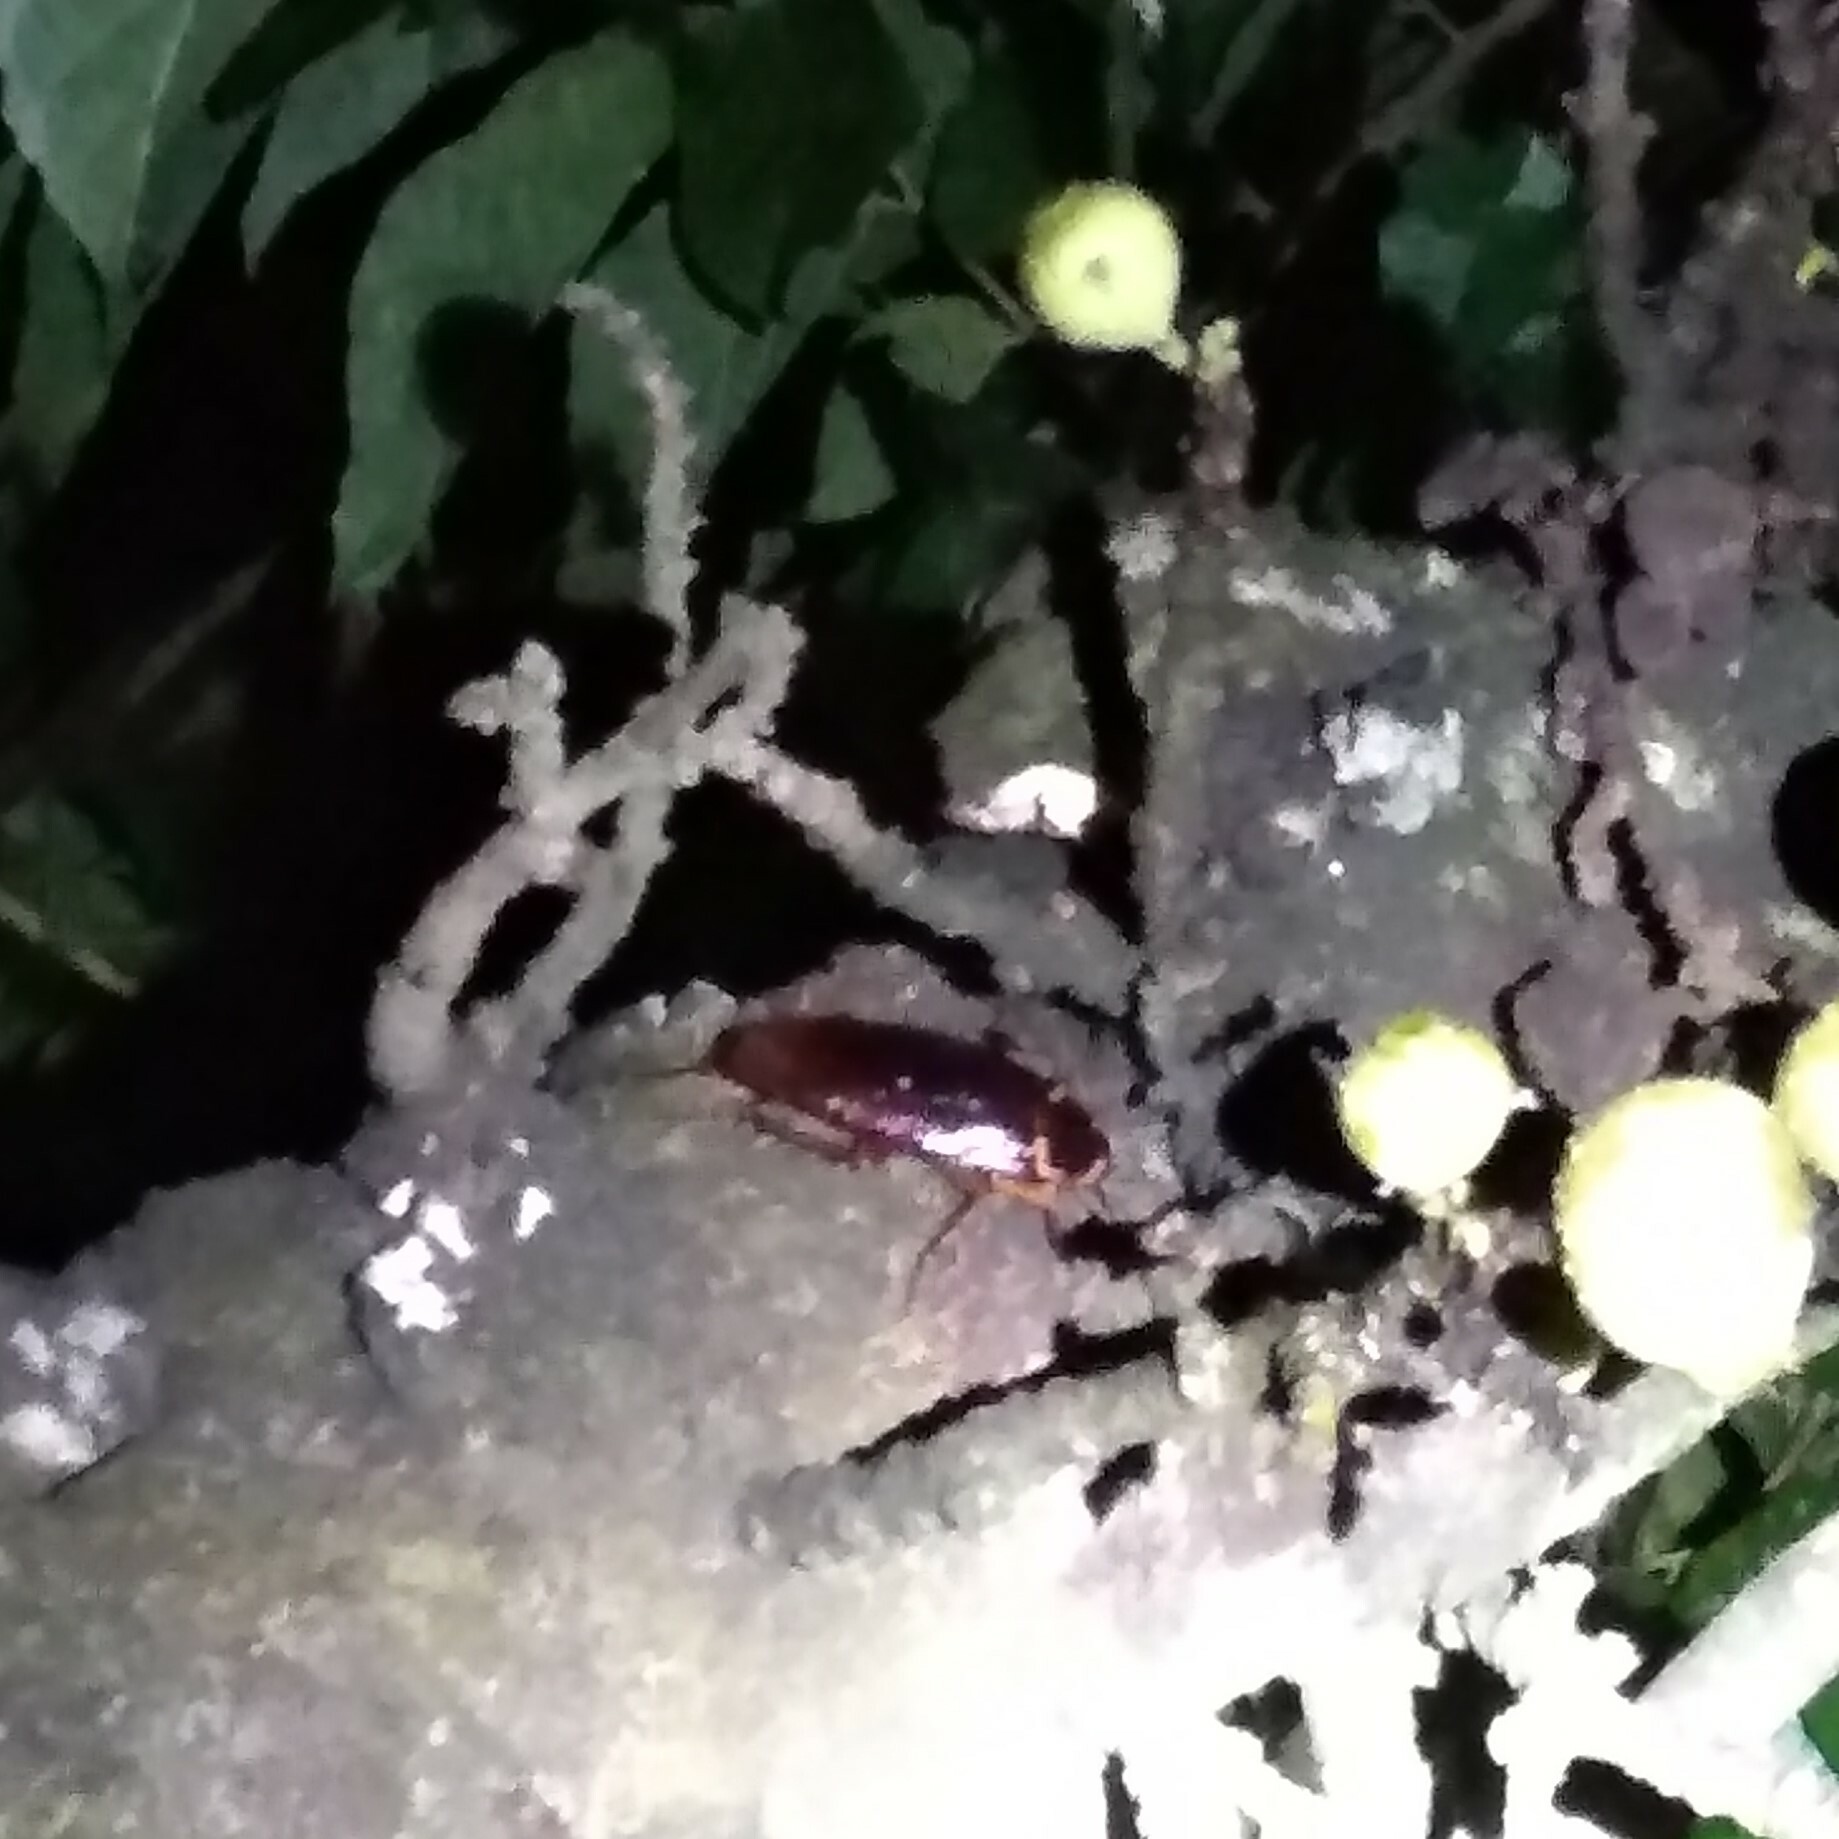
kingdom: Animalia
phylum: Arthropoda
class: Insecta
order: Blattodea
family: Blattidae
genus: Periplaneta
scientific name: Periplaneta americana
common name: American cockroach
